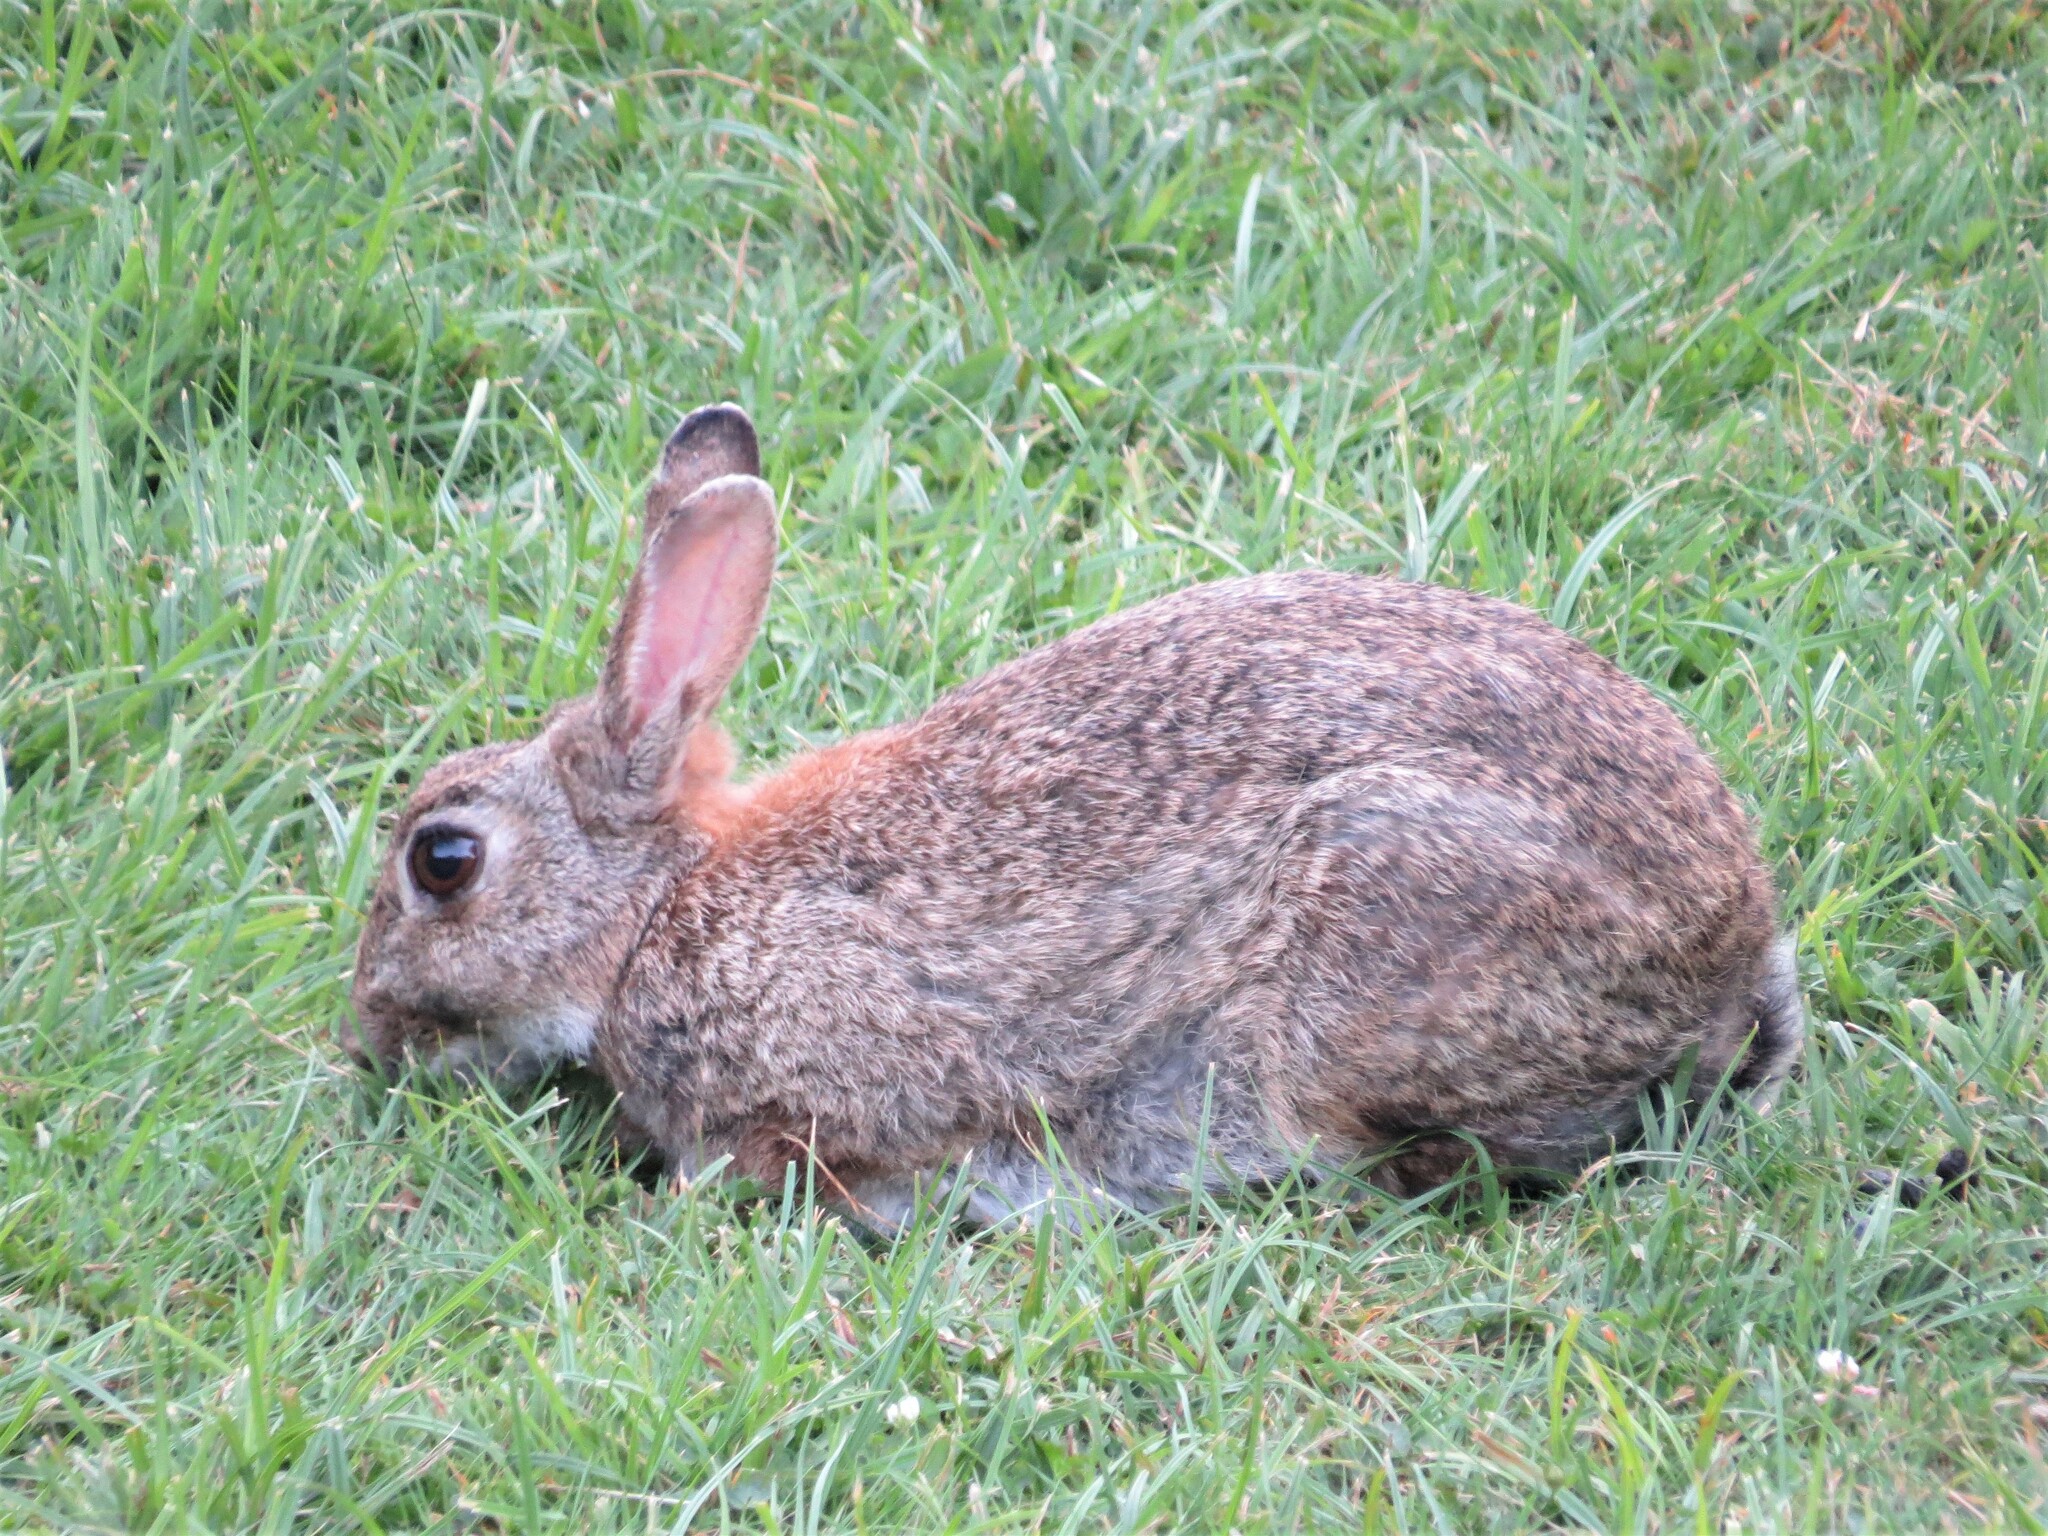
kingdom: Animalia
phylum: Chordata
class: Mammalia
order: Lagomorpha
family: Leporidae
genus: Oryctolagus
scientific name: Oryctolagus cuniculus
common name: European rabbit
